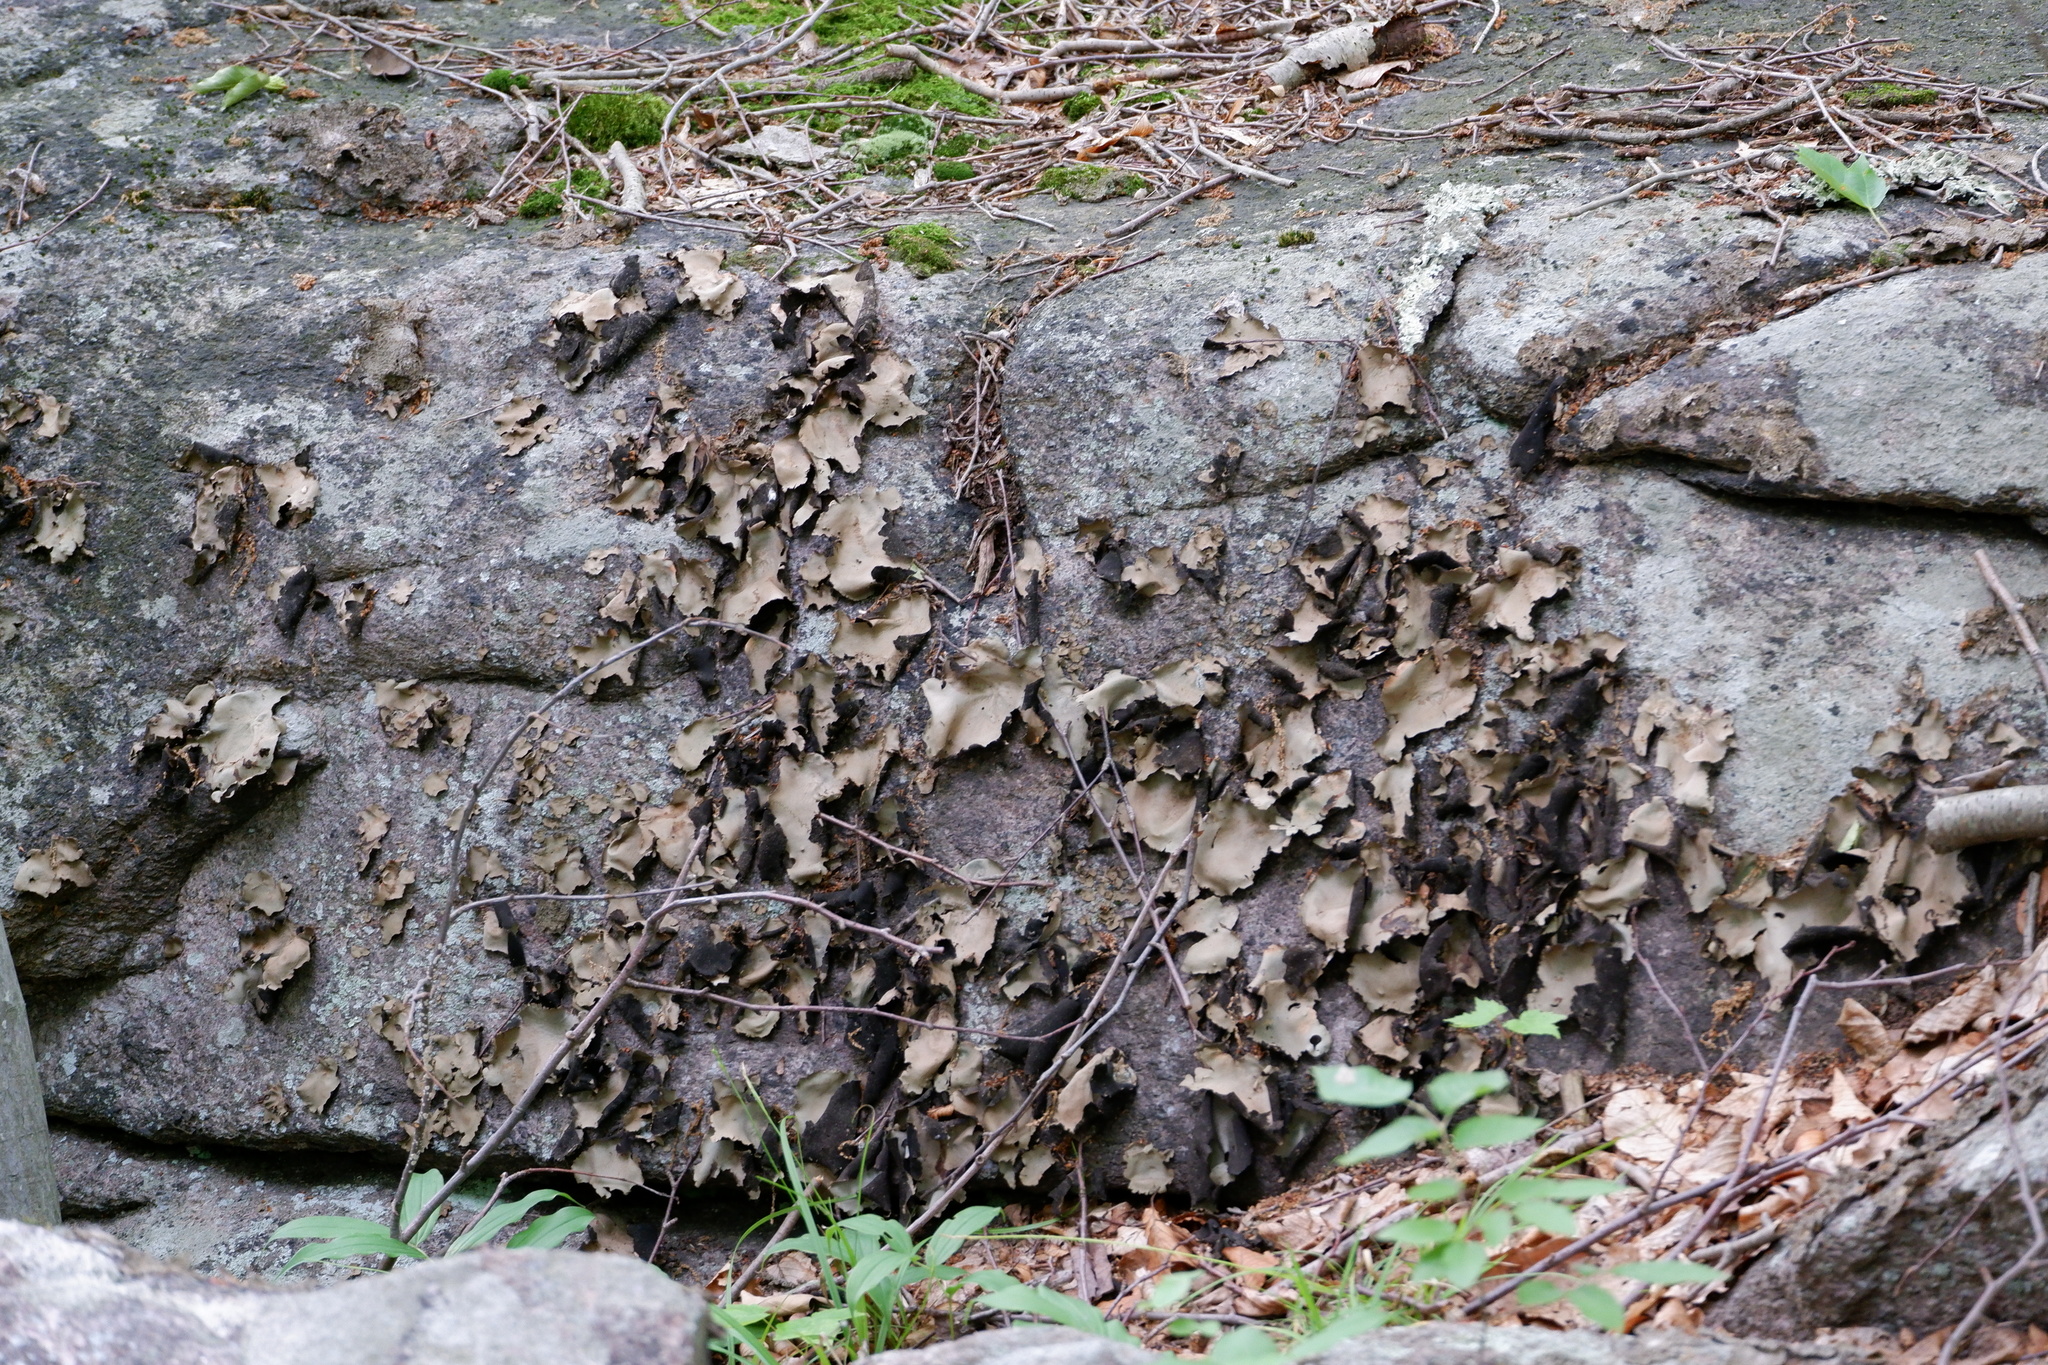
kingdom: Fungi
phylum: Ascomycota
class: Lecanoromycetes
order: Umbilicariales
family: Umbilicariaceae
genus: Umbilicaria
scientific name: Umbilicaria mammulata
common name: Smooth rock tripe
